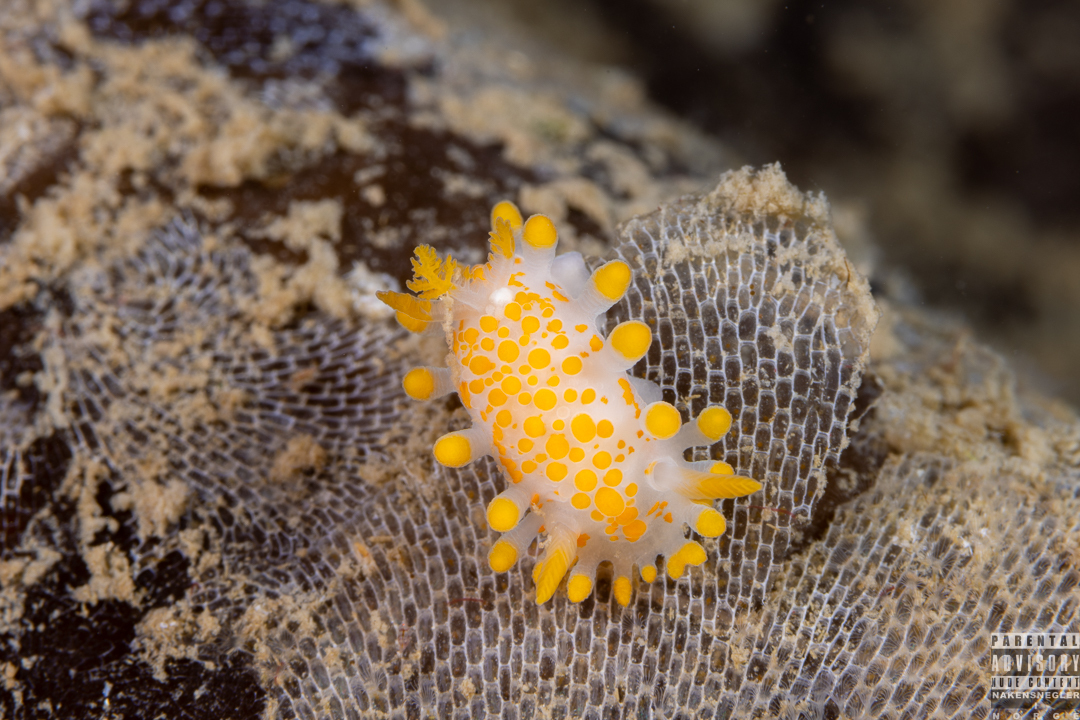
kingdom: Animalia
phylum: Mollusca
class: Gastropoda
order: Nudibranchia
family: Polyceridae
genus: Limacia
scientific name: Limacia clavigera
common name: Orange-clubbed sea slug
